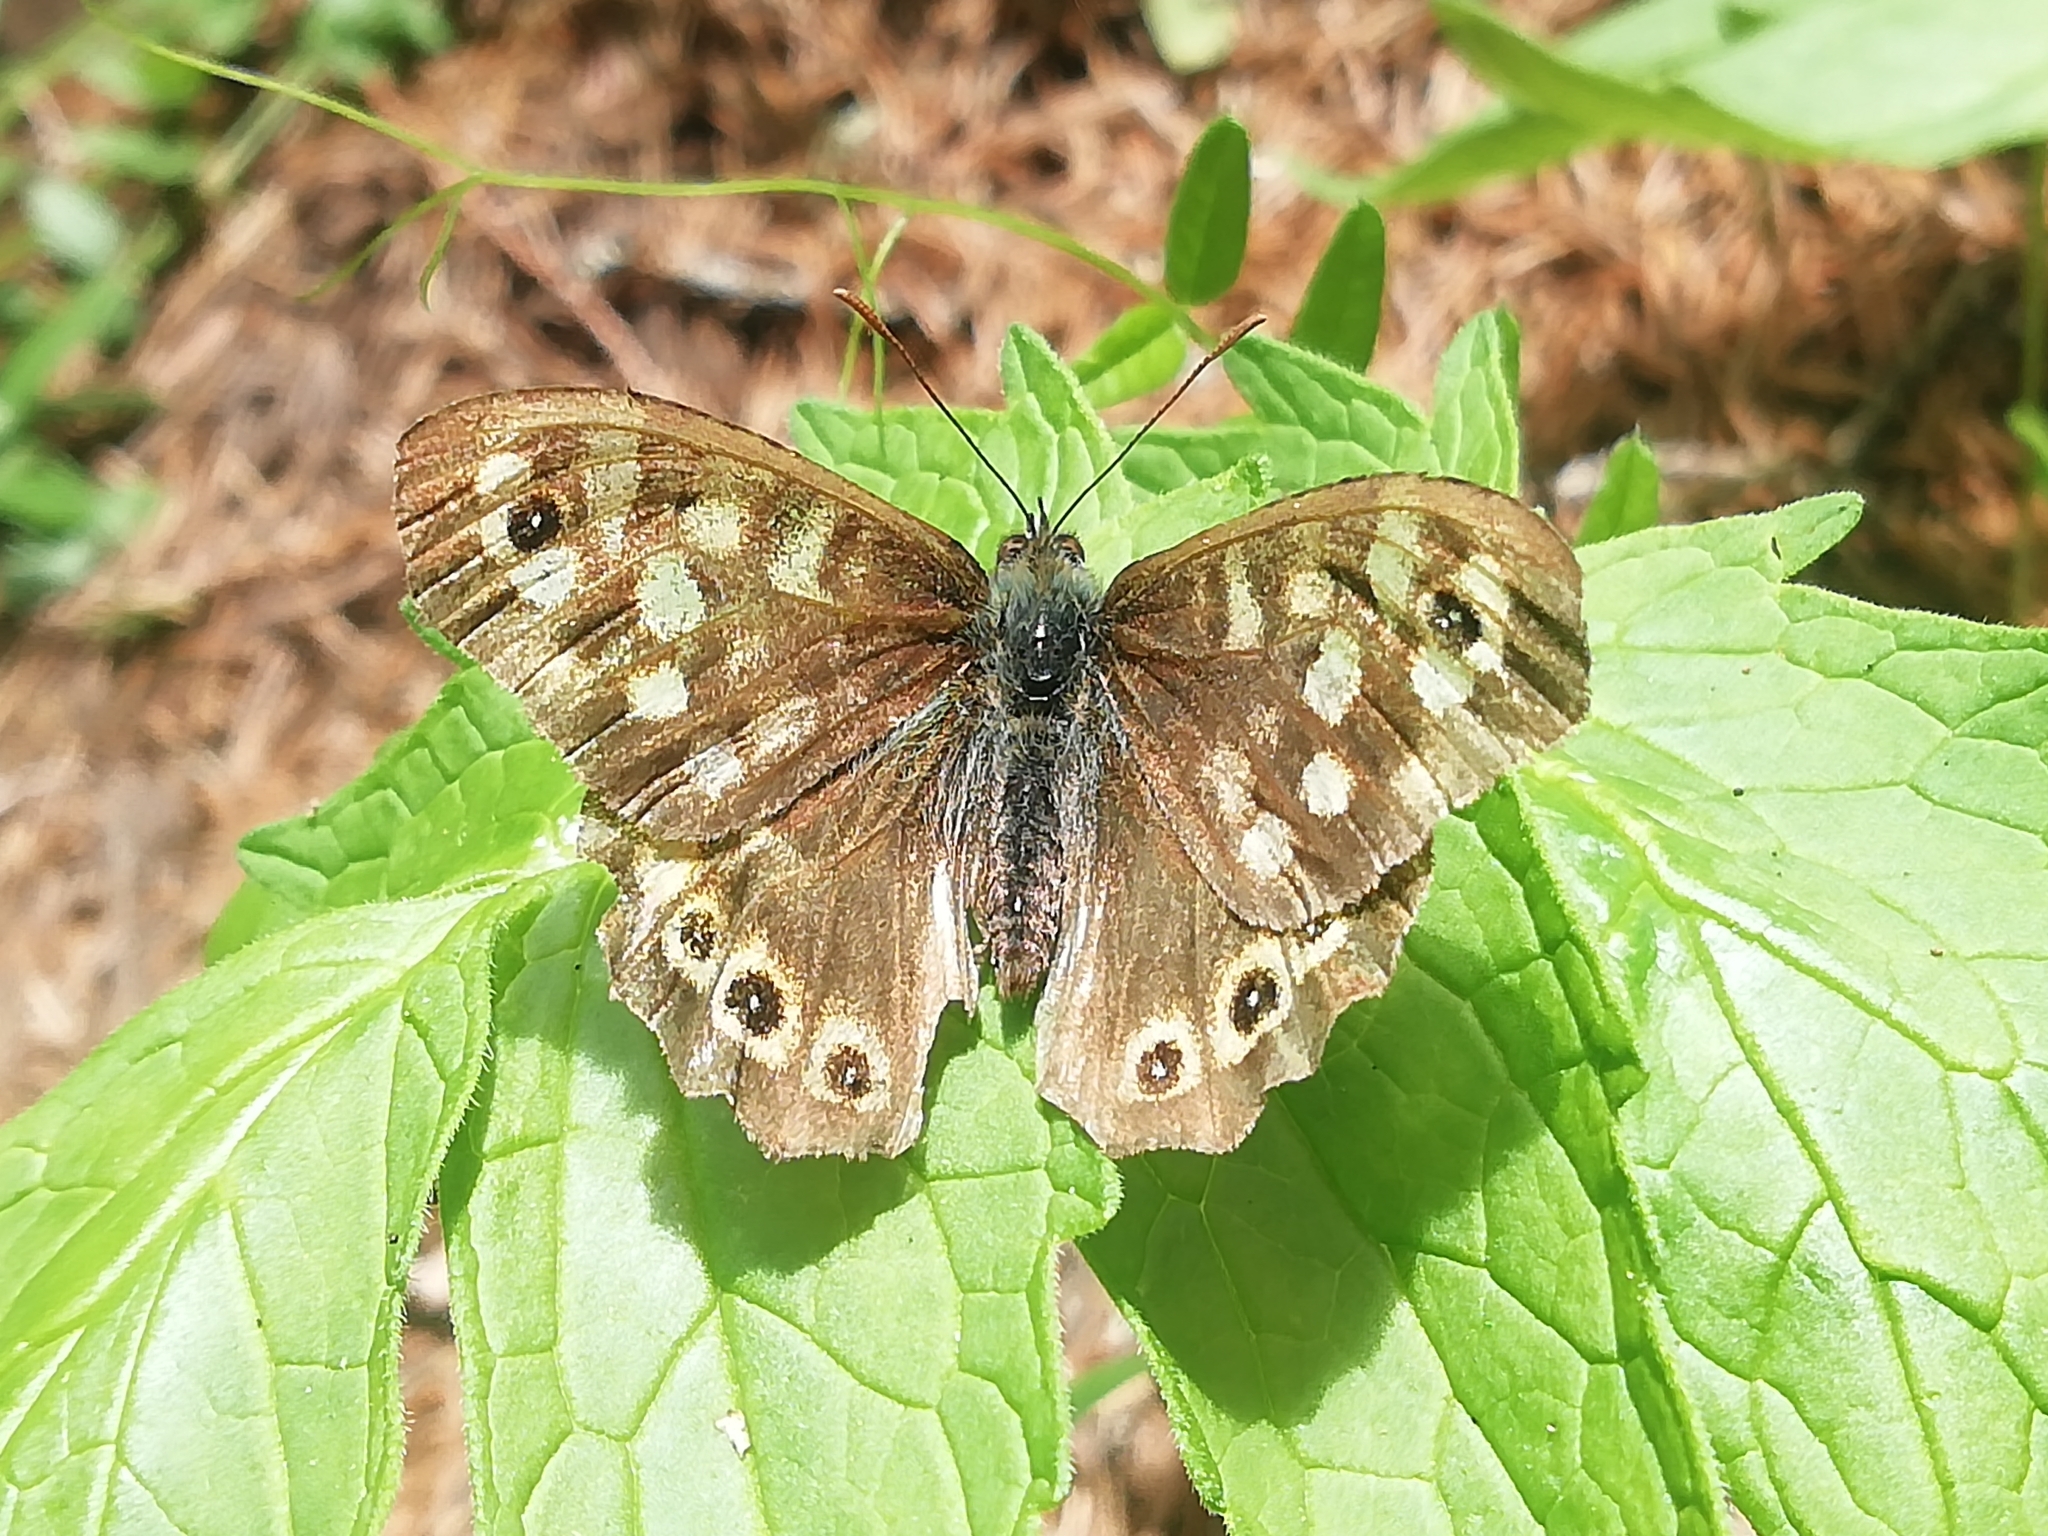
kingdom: Animalia
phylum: Arthropoda
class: Insecta
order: Lepidoptera
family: Nymphalidae
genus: Pararge
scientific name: Pararge aegeria
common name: Speckled wood
